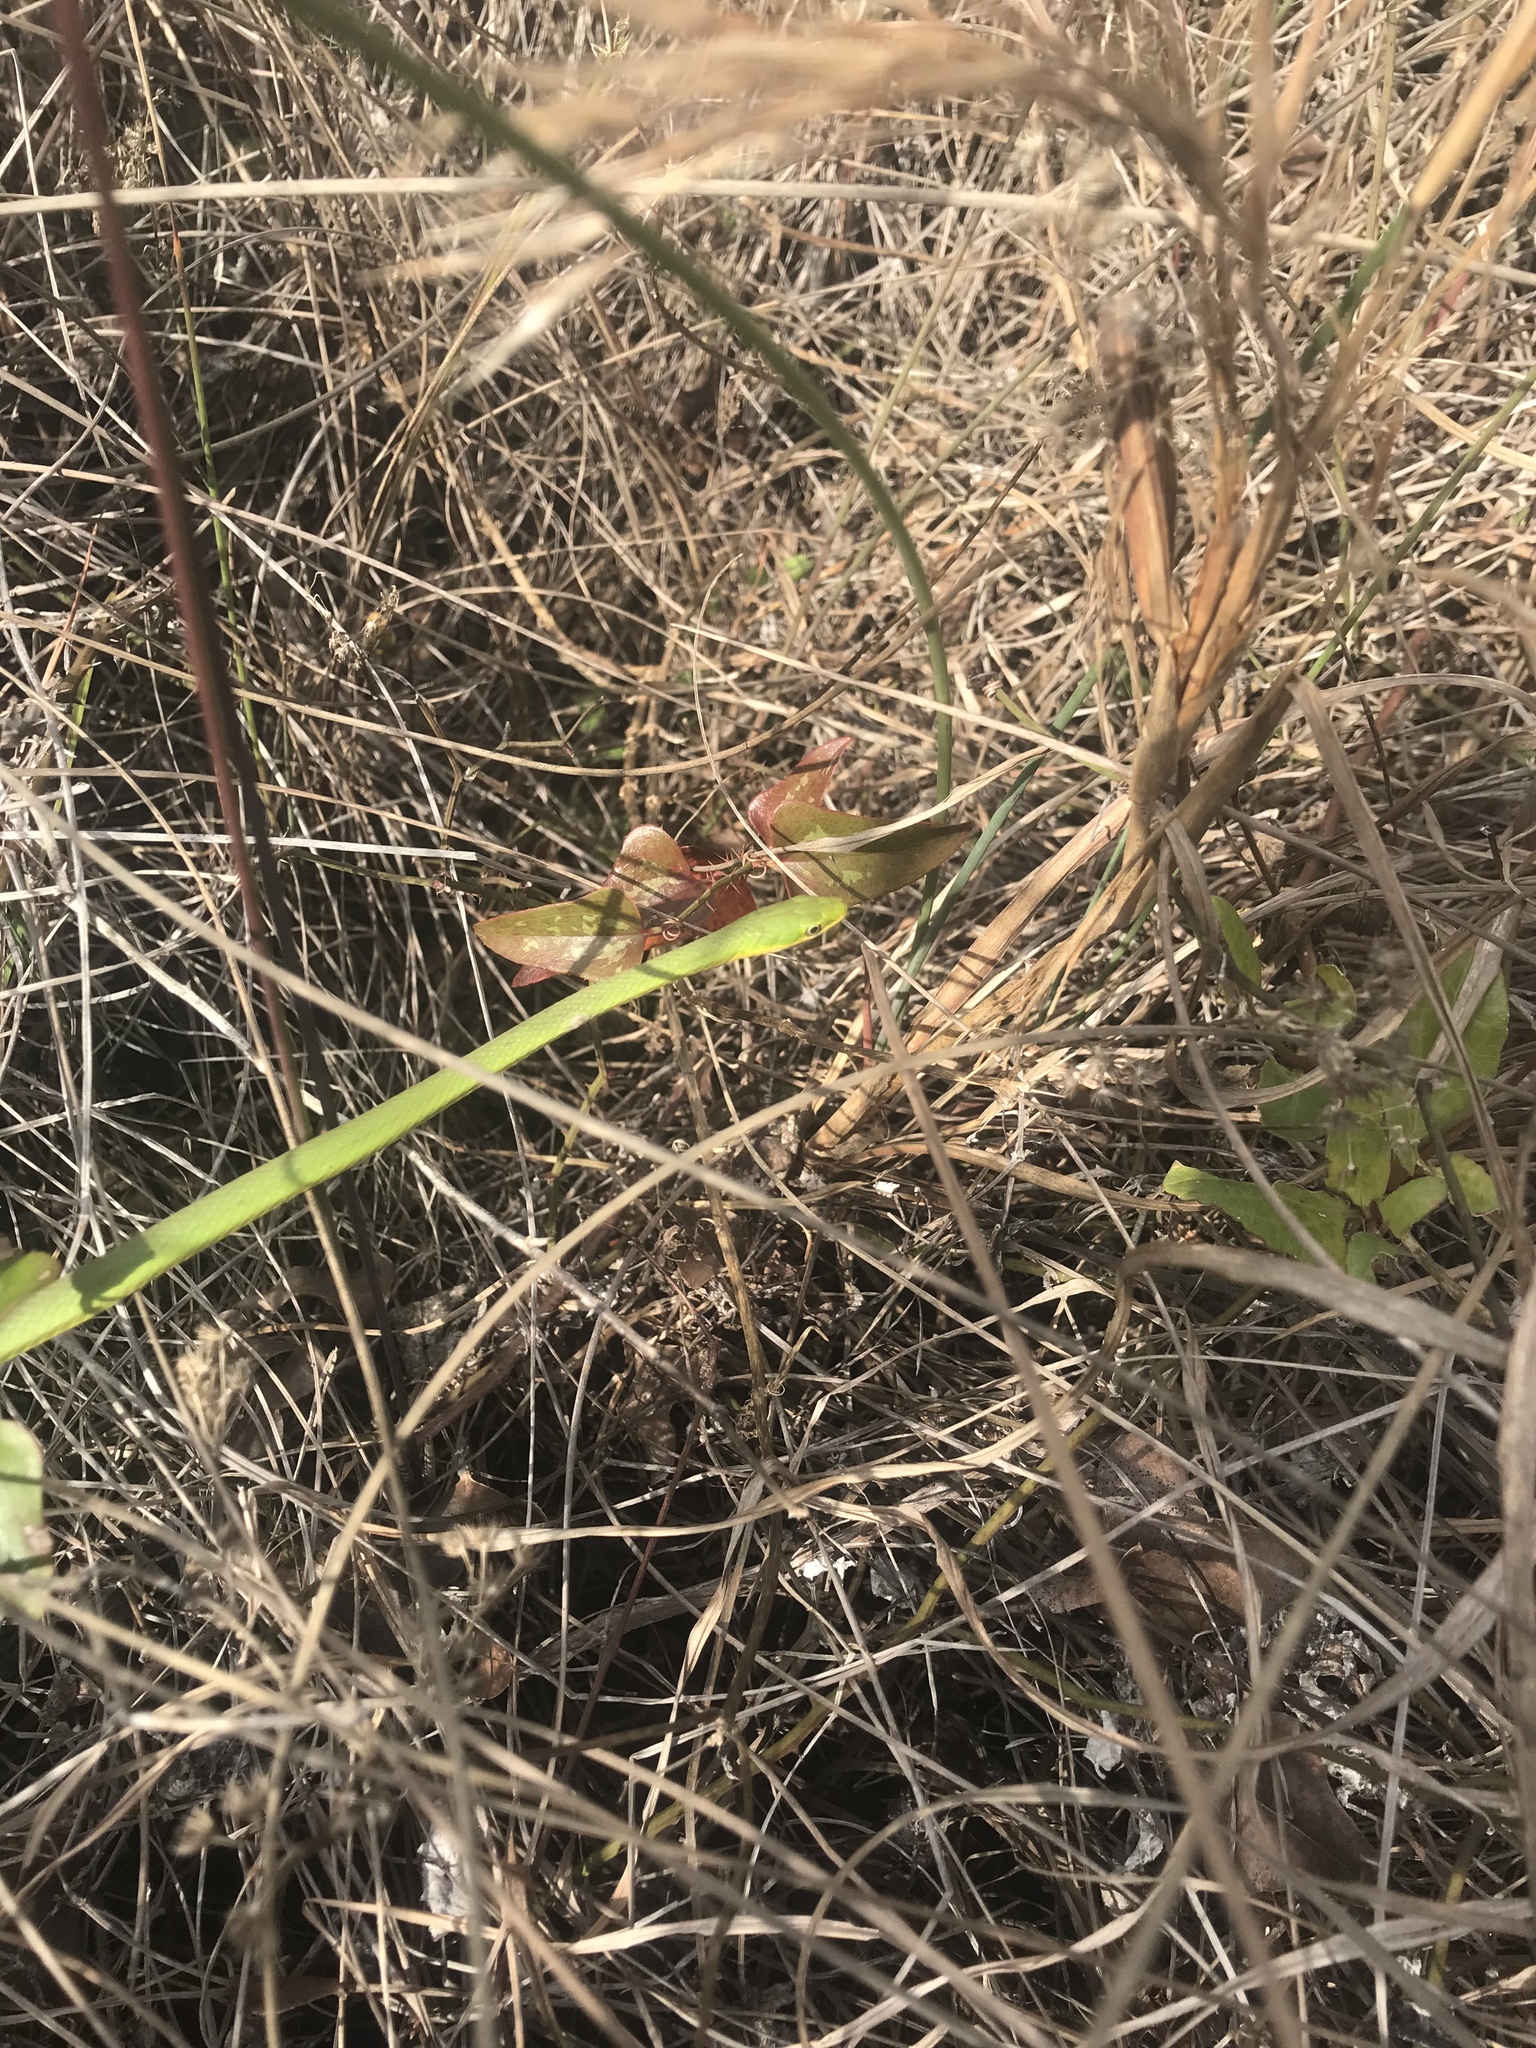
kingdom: Animalia
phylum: Chordata
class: Squamata
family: Colubridae
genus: Opheodrys
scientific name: Opheodrys aestivus
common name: Rough greensnake
